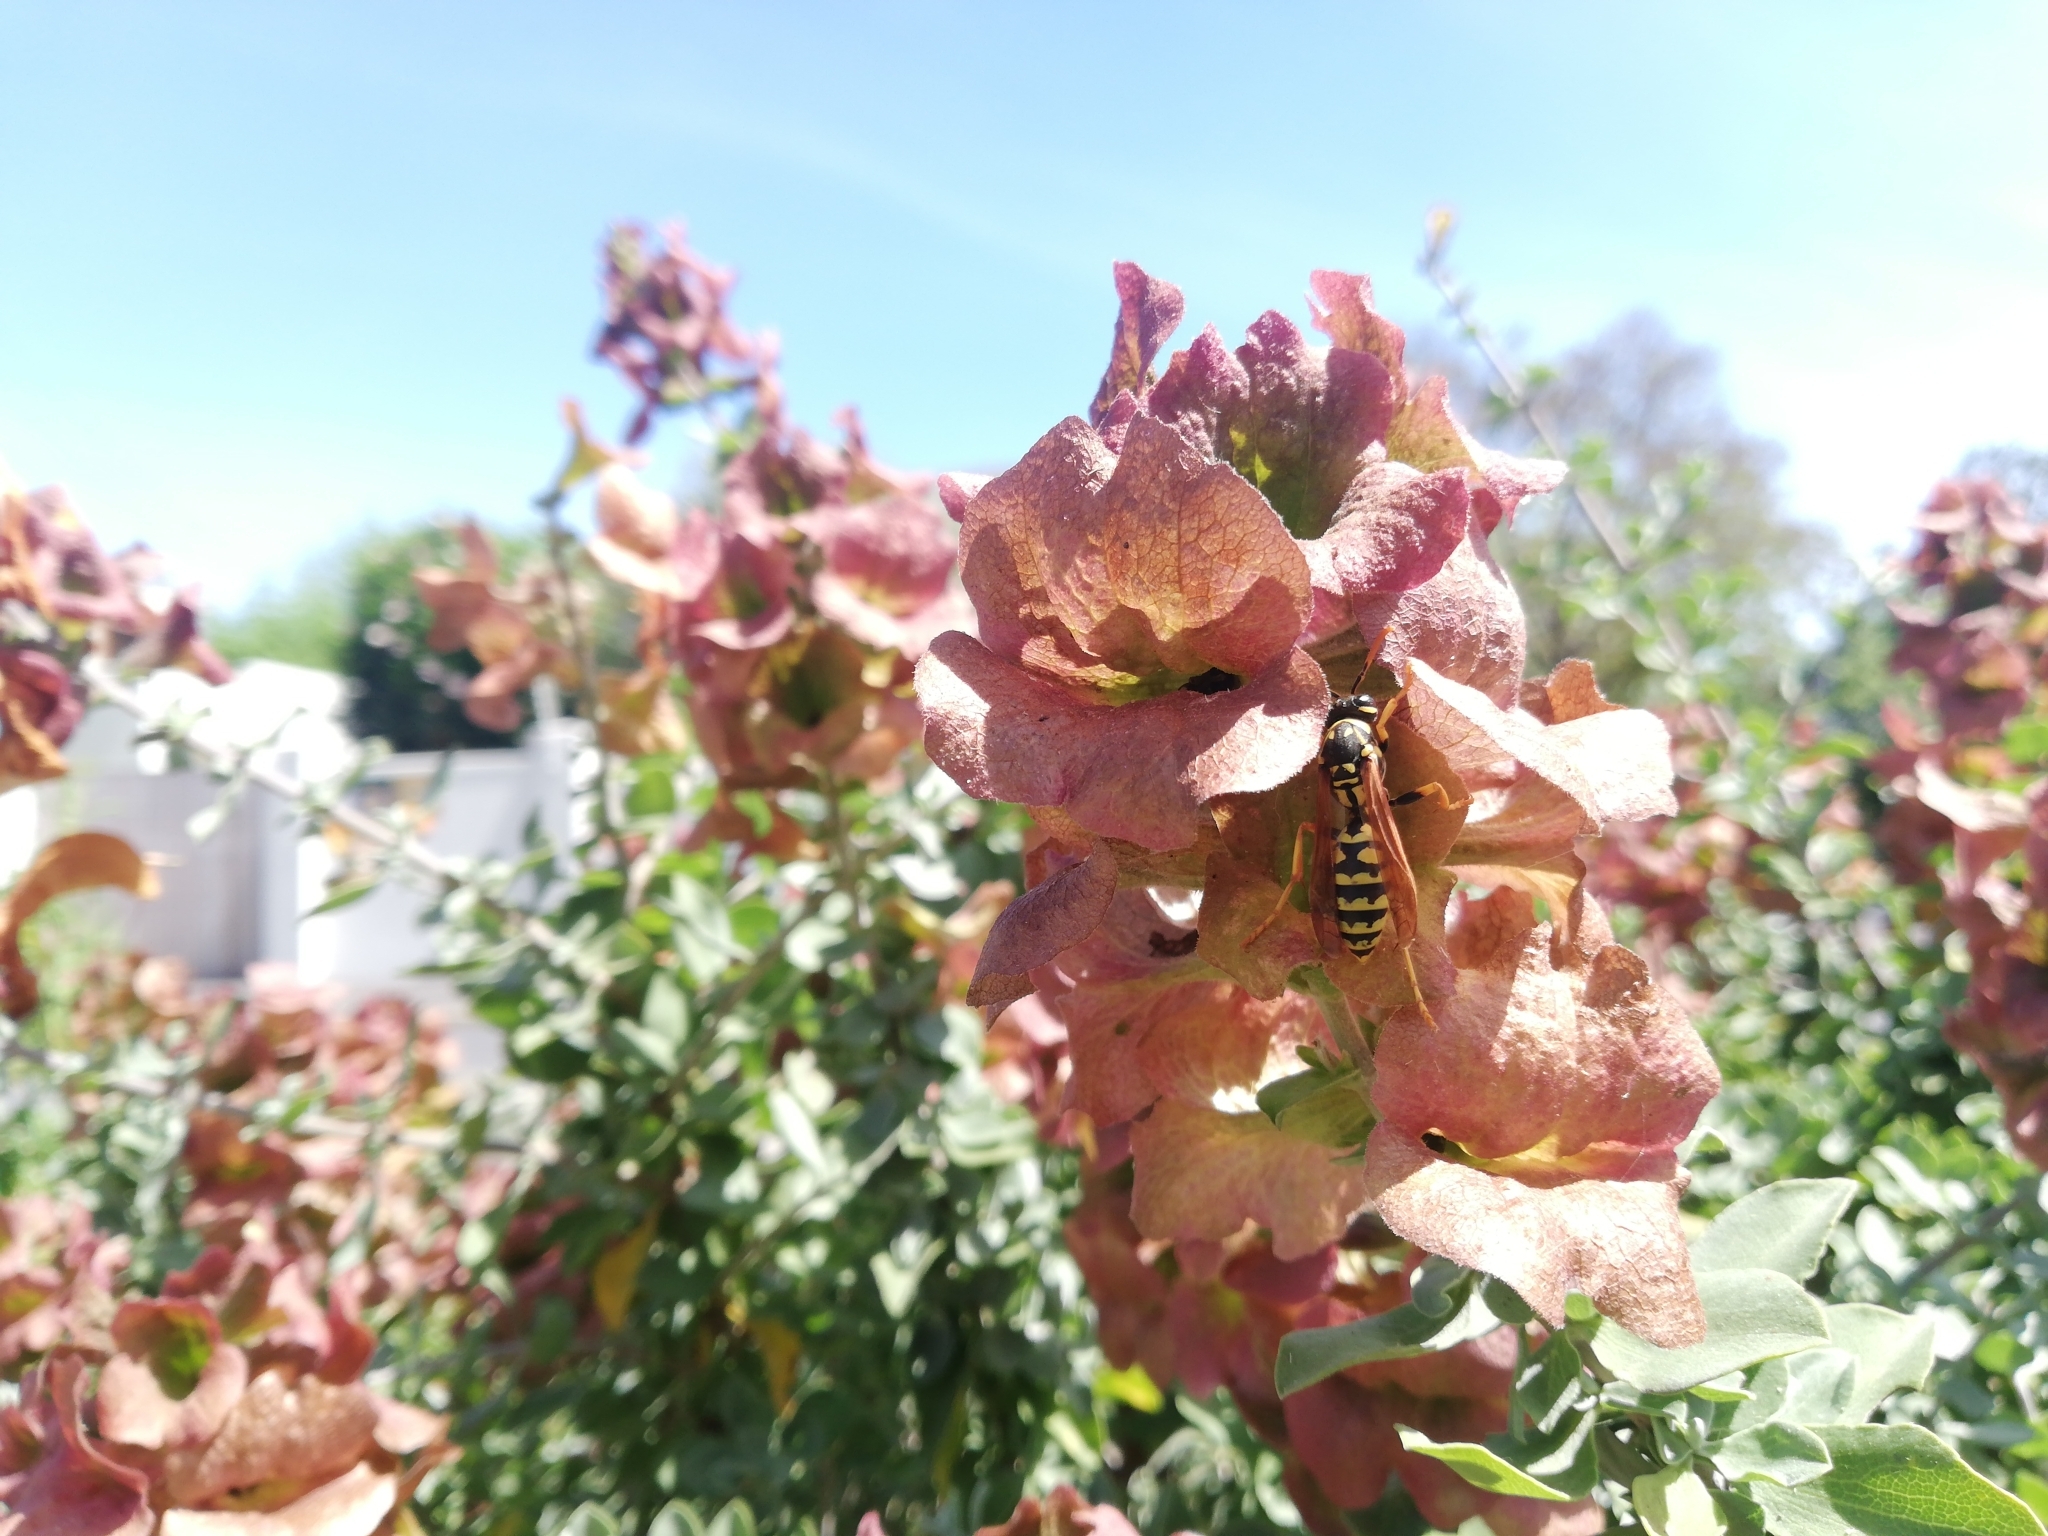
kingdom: Animalia
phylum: Arthropoda
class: Insecta
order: Hymenoptera
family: Eumenidae
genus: Polistes
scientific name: Polistes dominula
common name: Paper wasp
